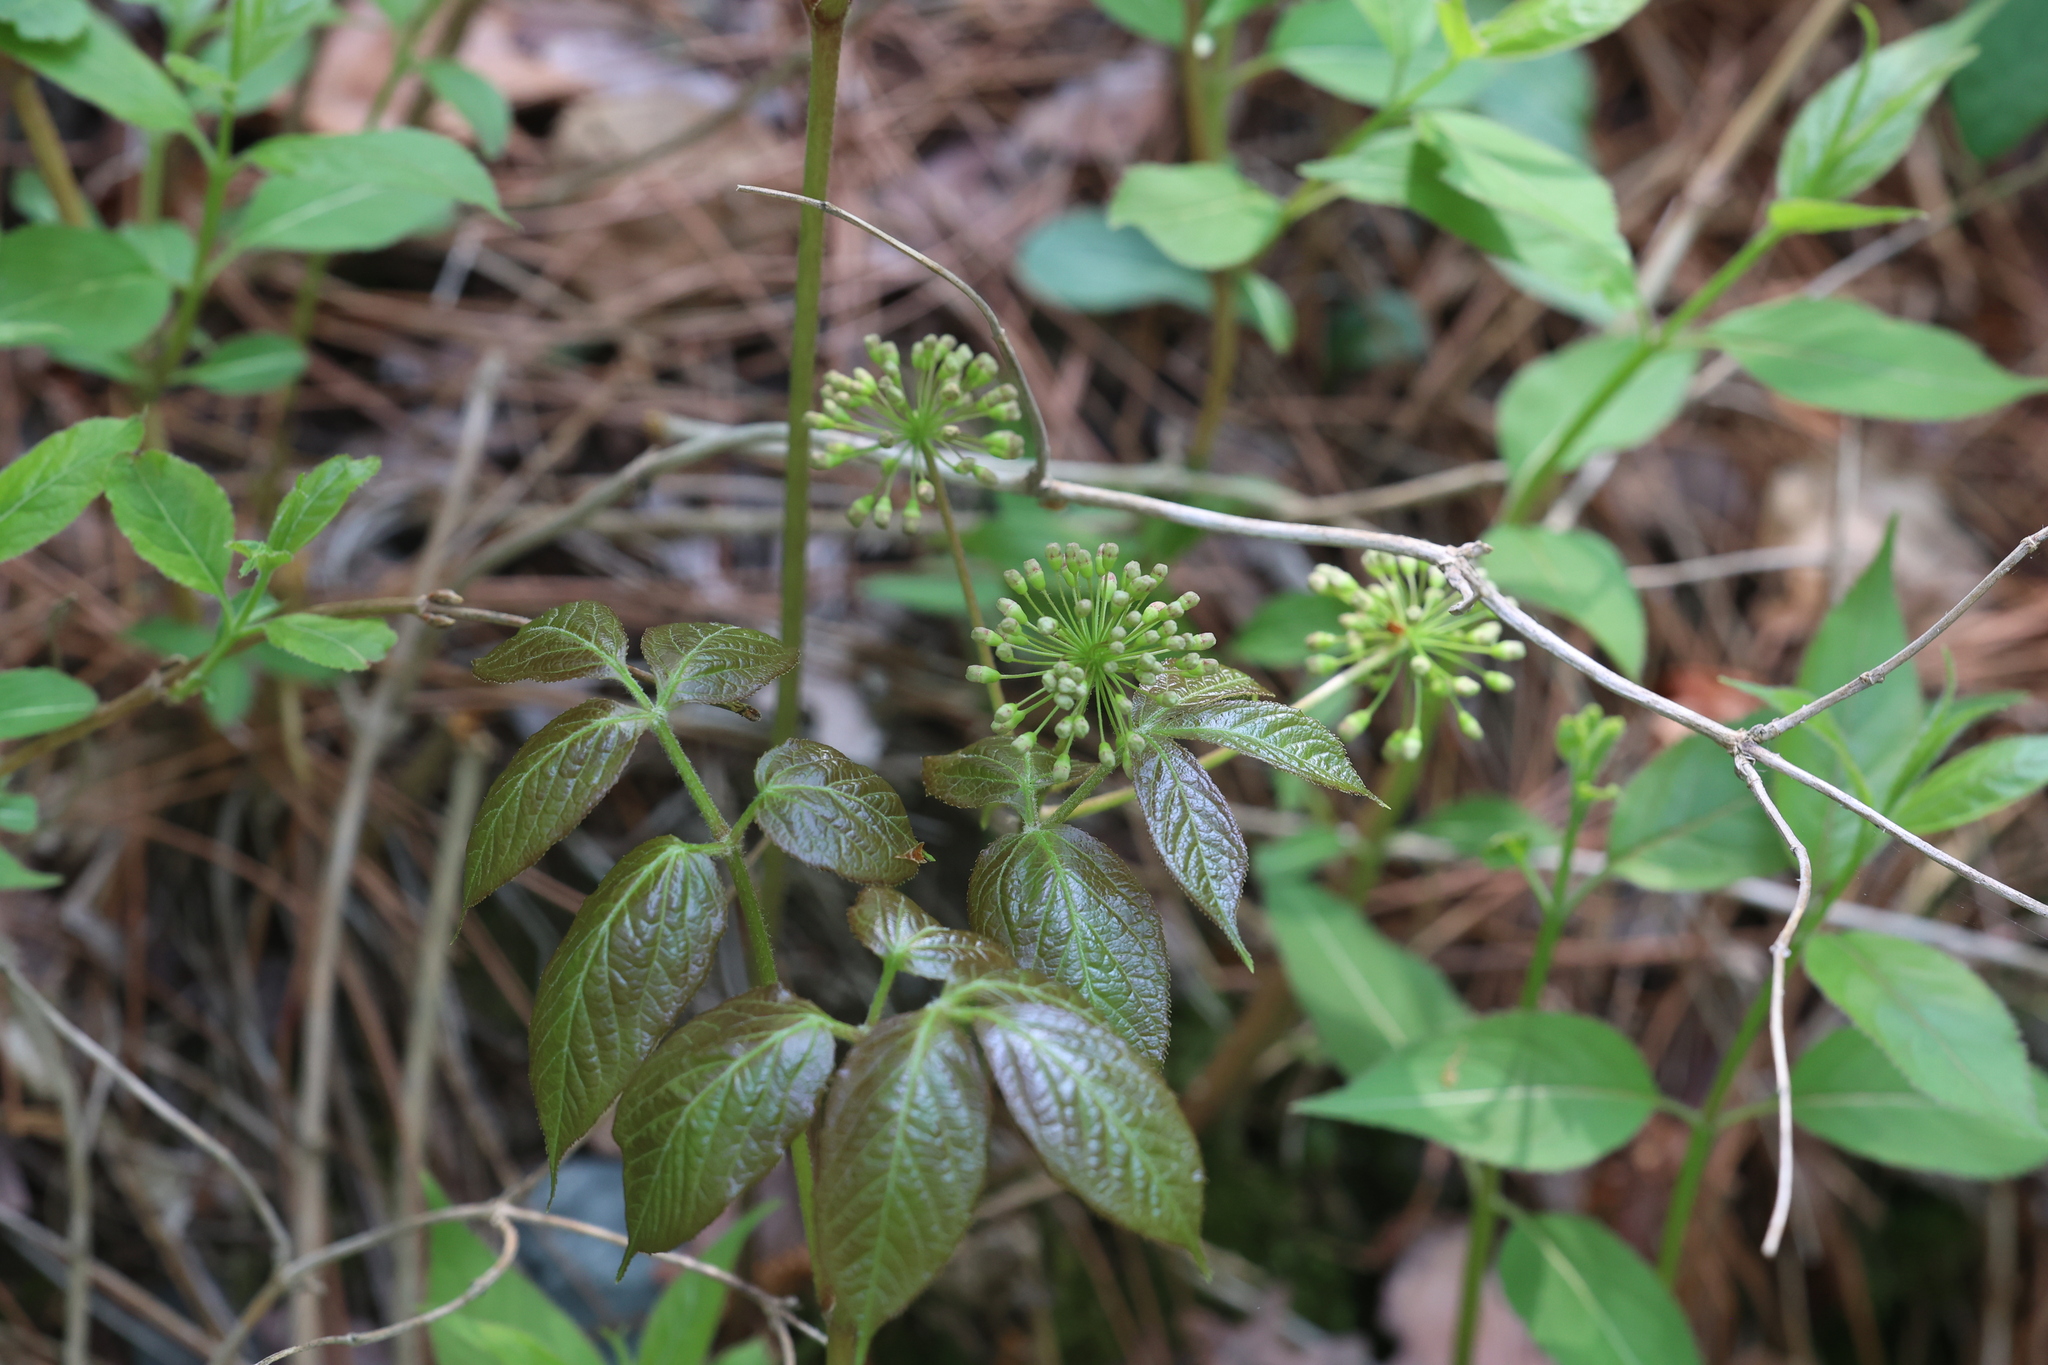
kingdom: Plantae
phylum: Tracheophyta
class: Magnoliopsida
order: Apiales
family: Araliaceae
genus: Aralia
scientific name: Aralia nudicaulis
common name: Wild sarsaparilla
